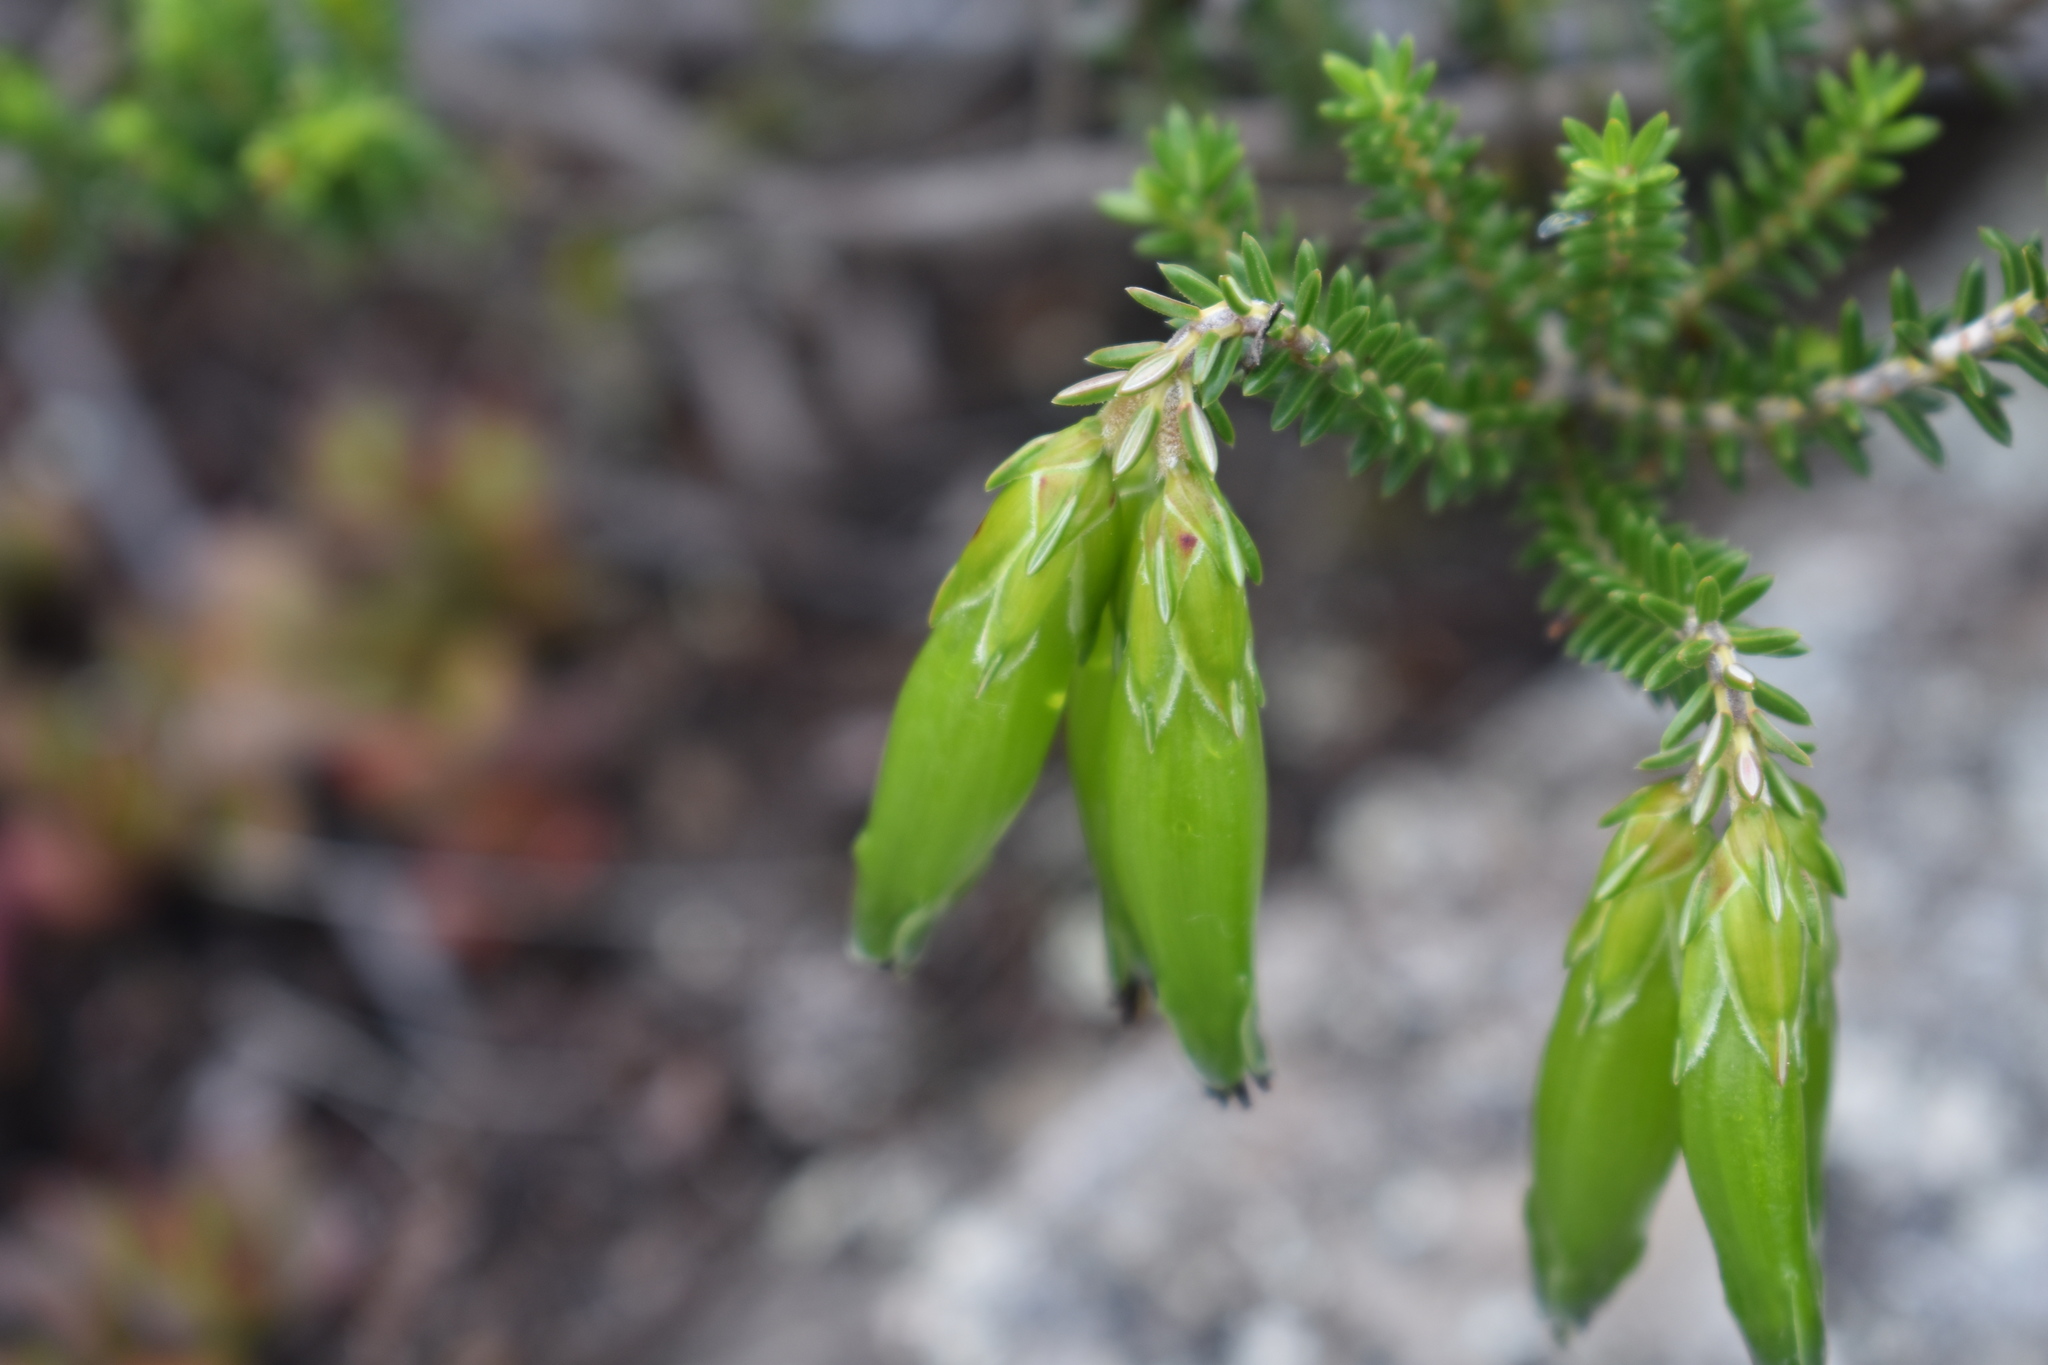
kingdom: Plantae
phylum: Tracheophyta
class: Magnoliopsida
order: Ericales
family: Ericaceae
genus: Erica
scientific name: Erica viridiflora
